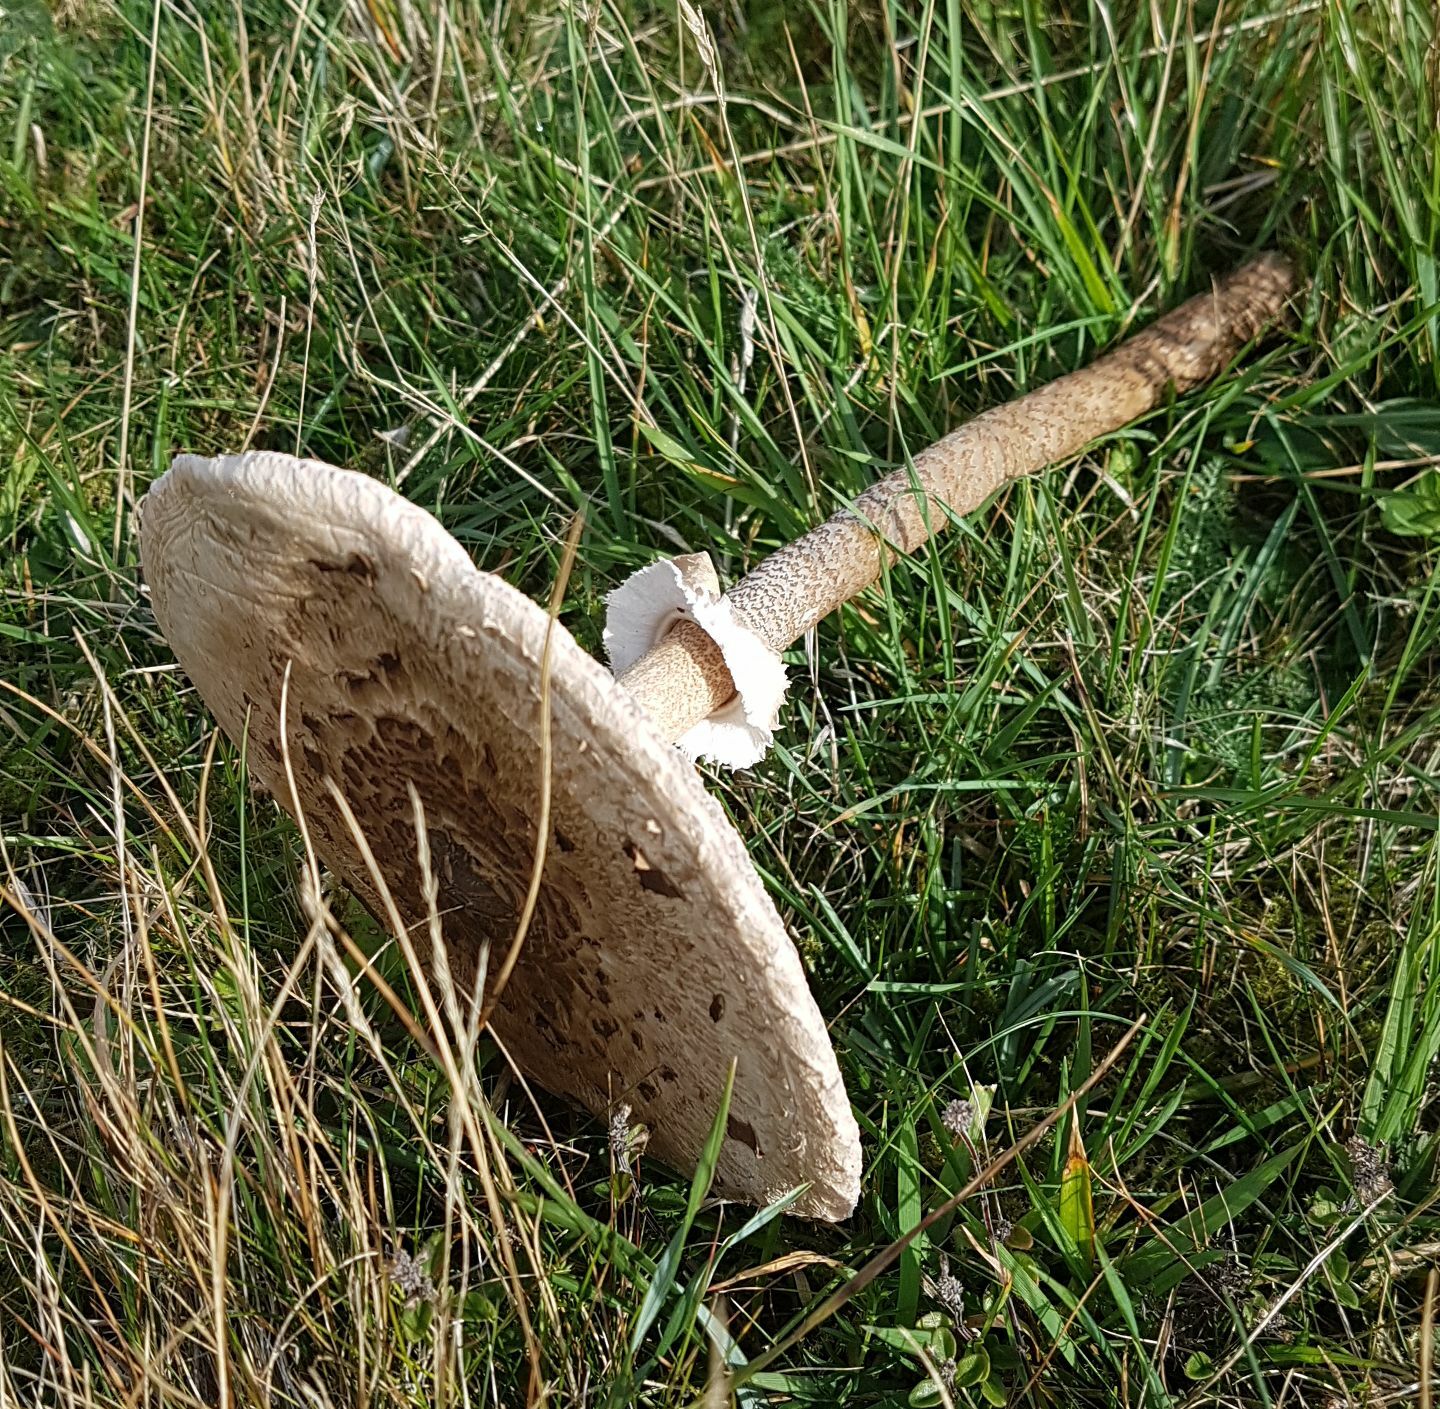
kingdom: Fungi
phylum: Basidiomycota
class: Agaricomycetes
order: Agaricales
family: Agaricaceae
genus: Macrolepiota
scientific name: Macrolepiota procera
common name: Parasol
